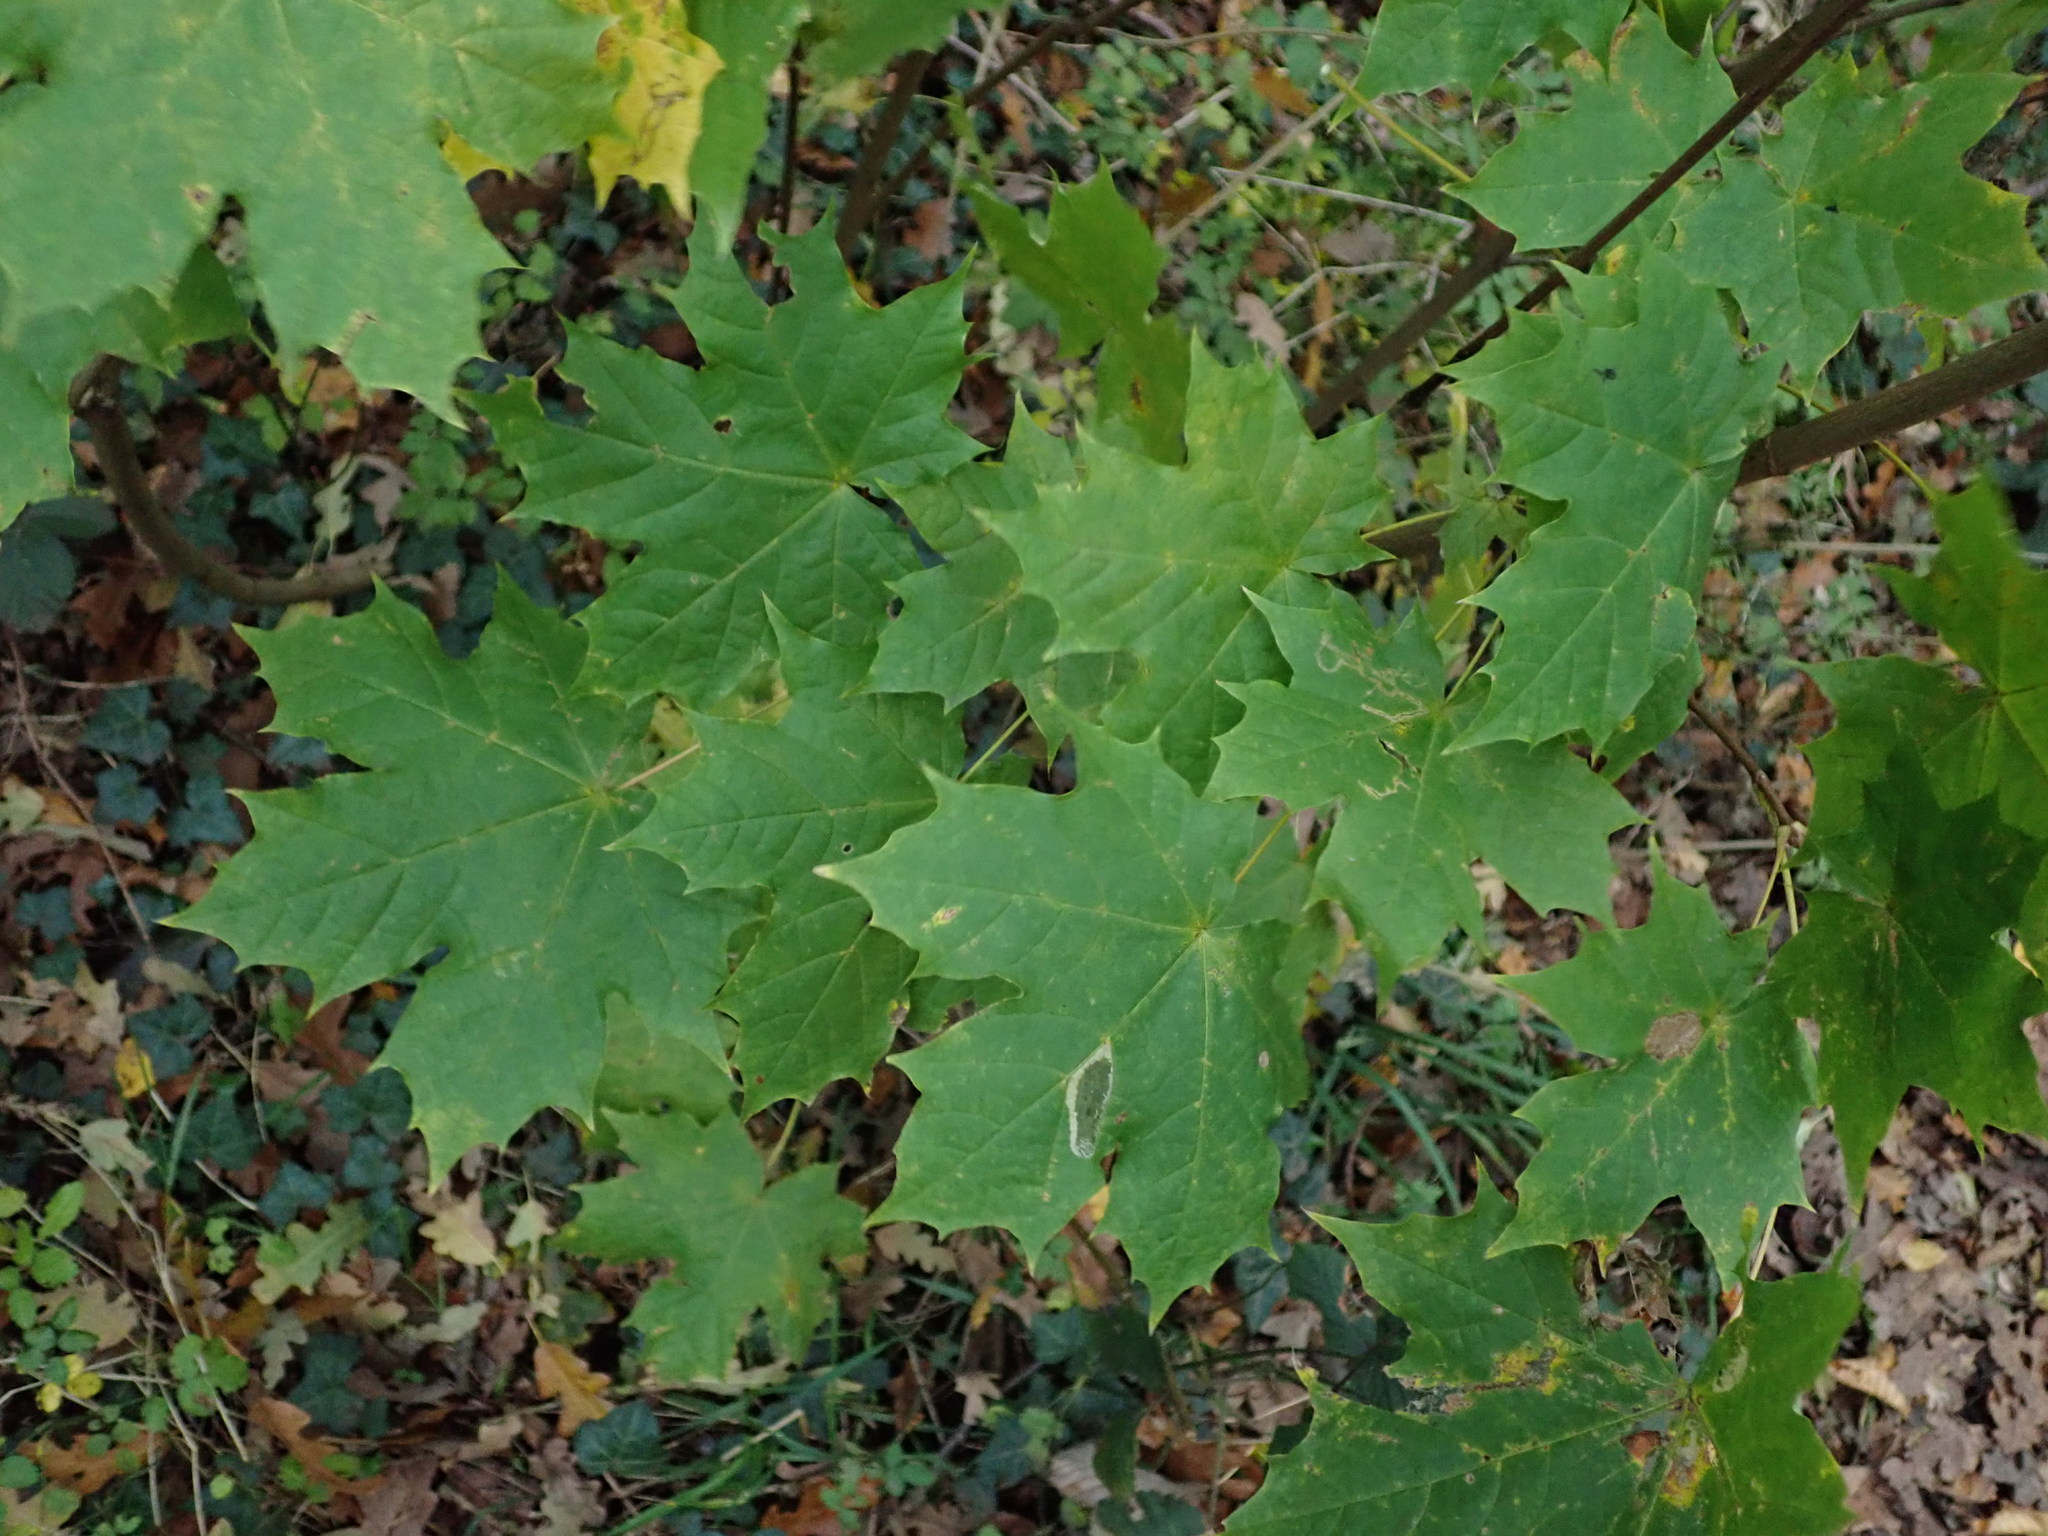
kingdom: Plantae
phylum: Tracheophyta
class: Magnoliopsida
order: Sapindales
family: Sapindaceae
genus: Acer
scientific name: Acer platanoides
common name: Norway maple
